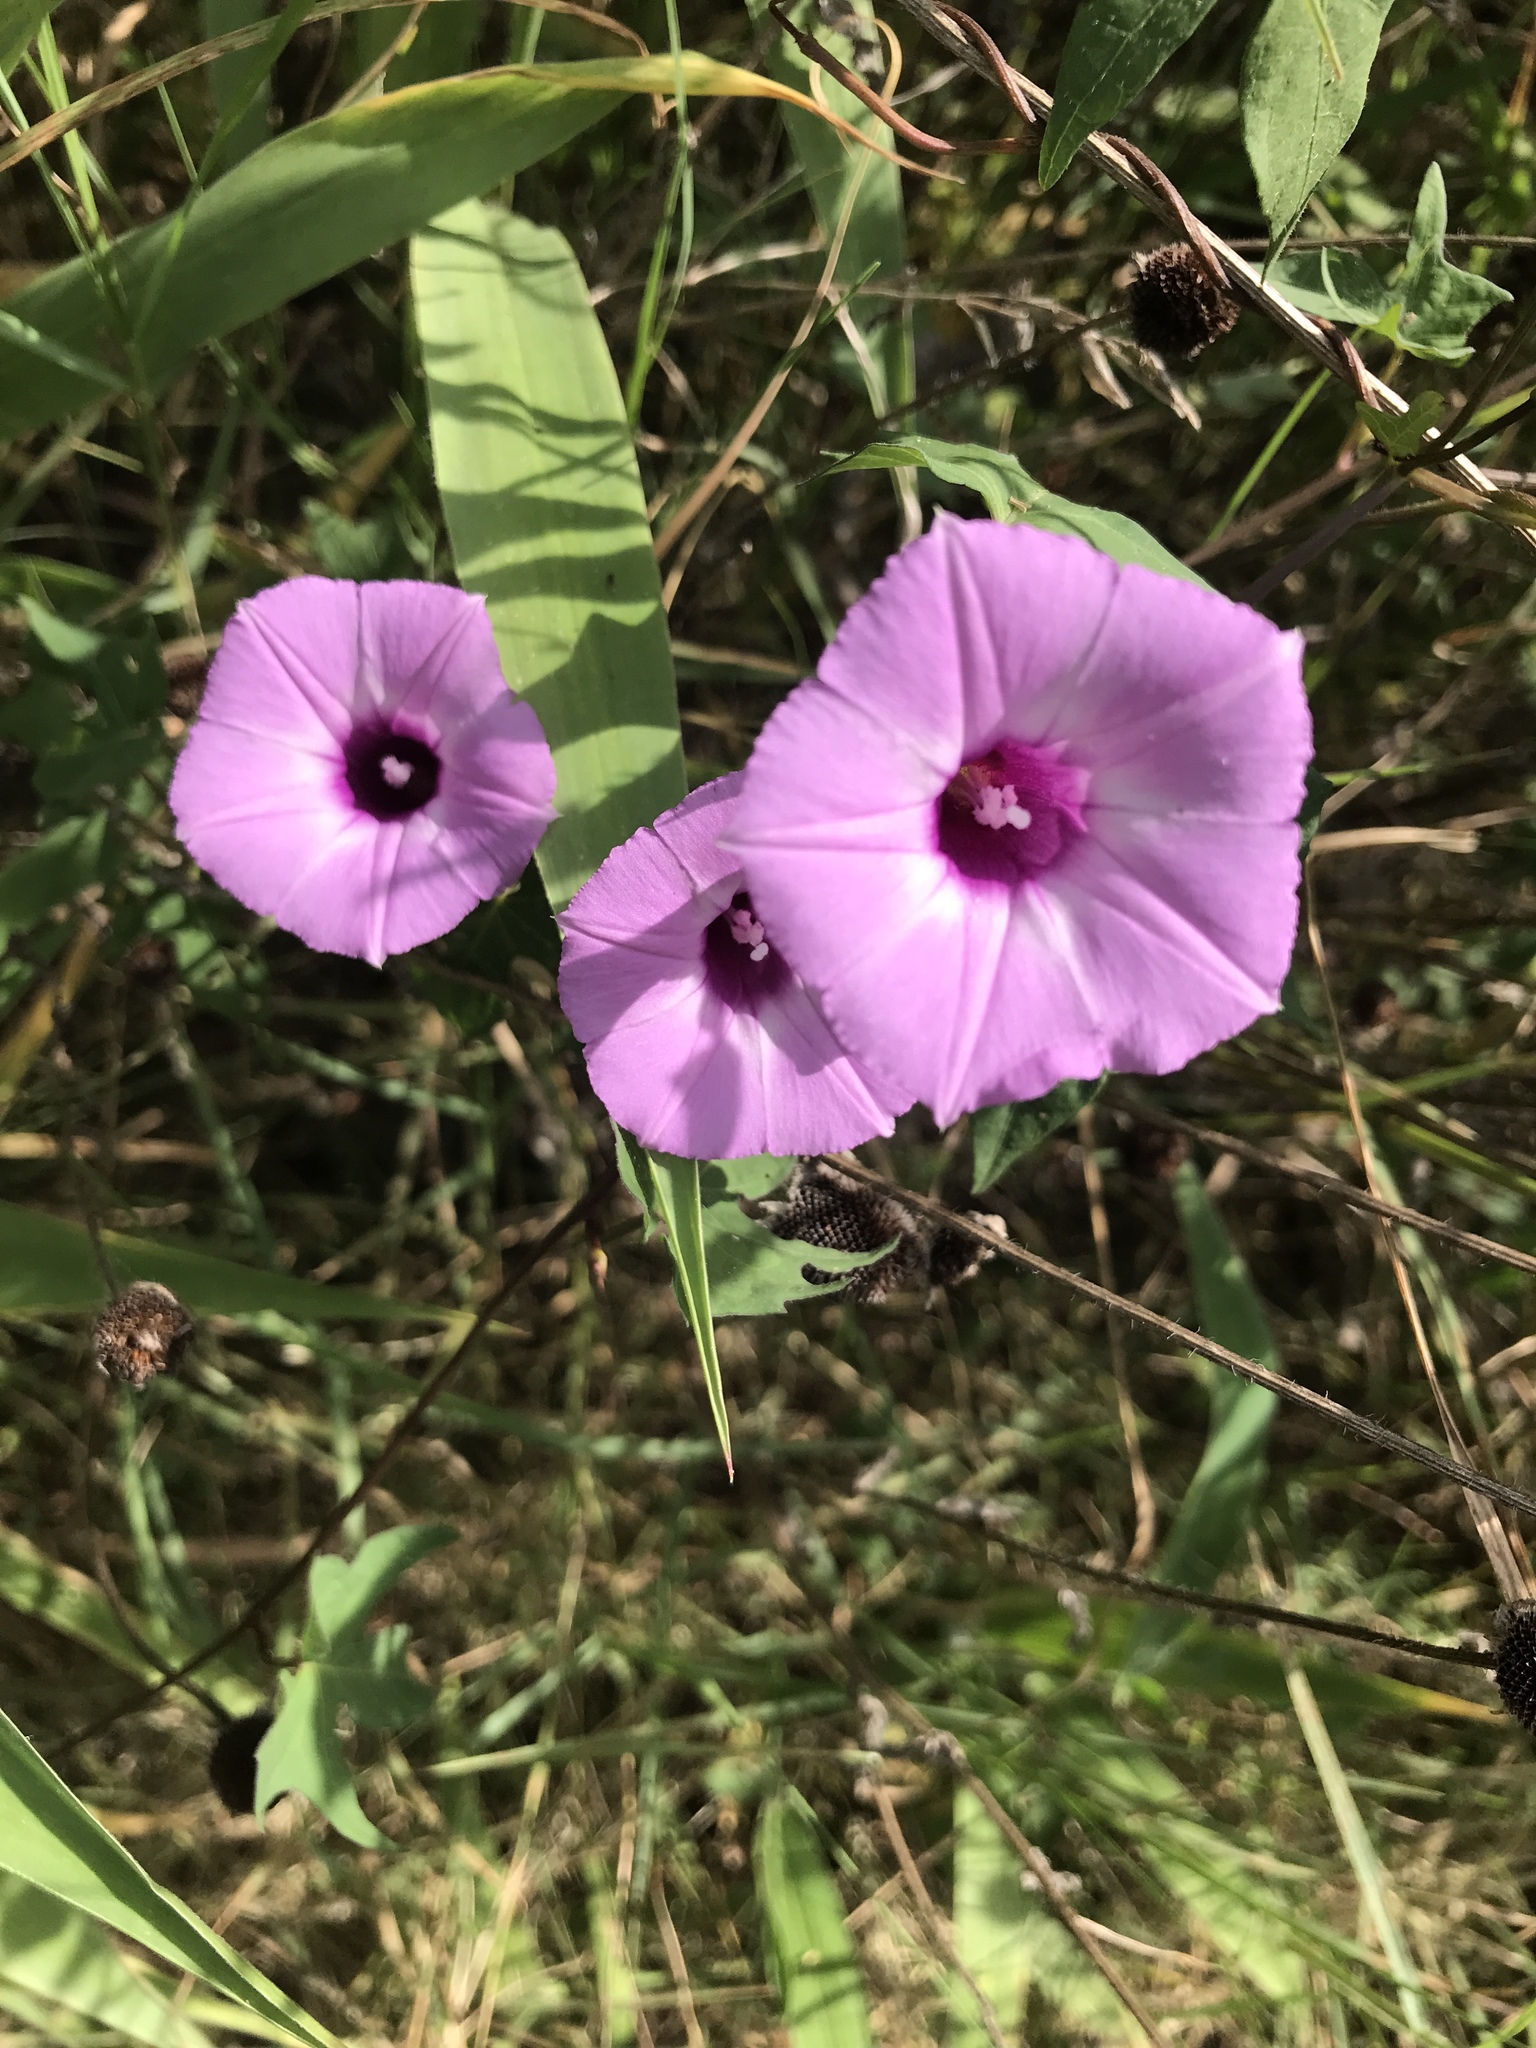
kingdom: Plantae
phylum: Tracheophyta
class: Magnoliopsida
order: Solanales
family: Convolvulaceae
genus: Ipomoea
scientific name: Ipomoea cordatotriloba
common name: Cotton morning glory
